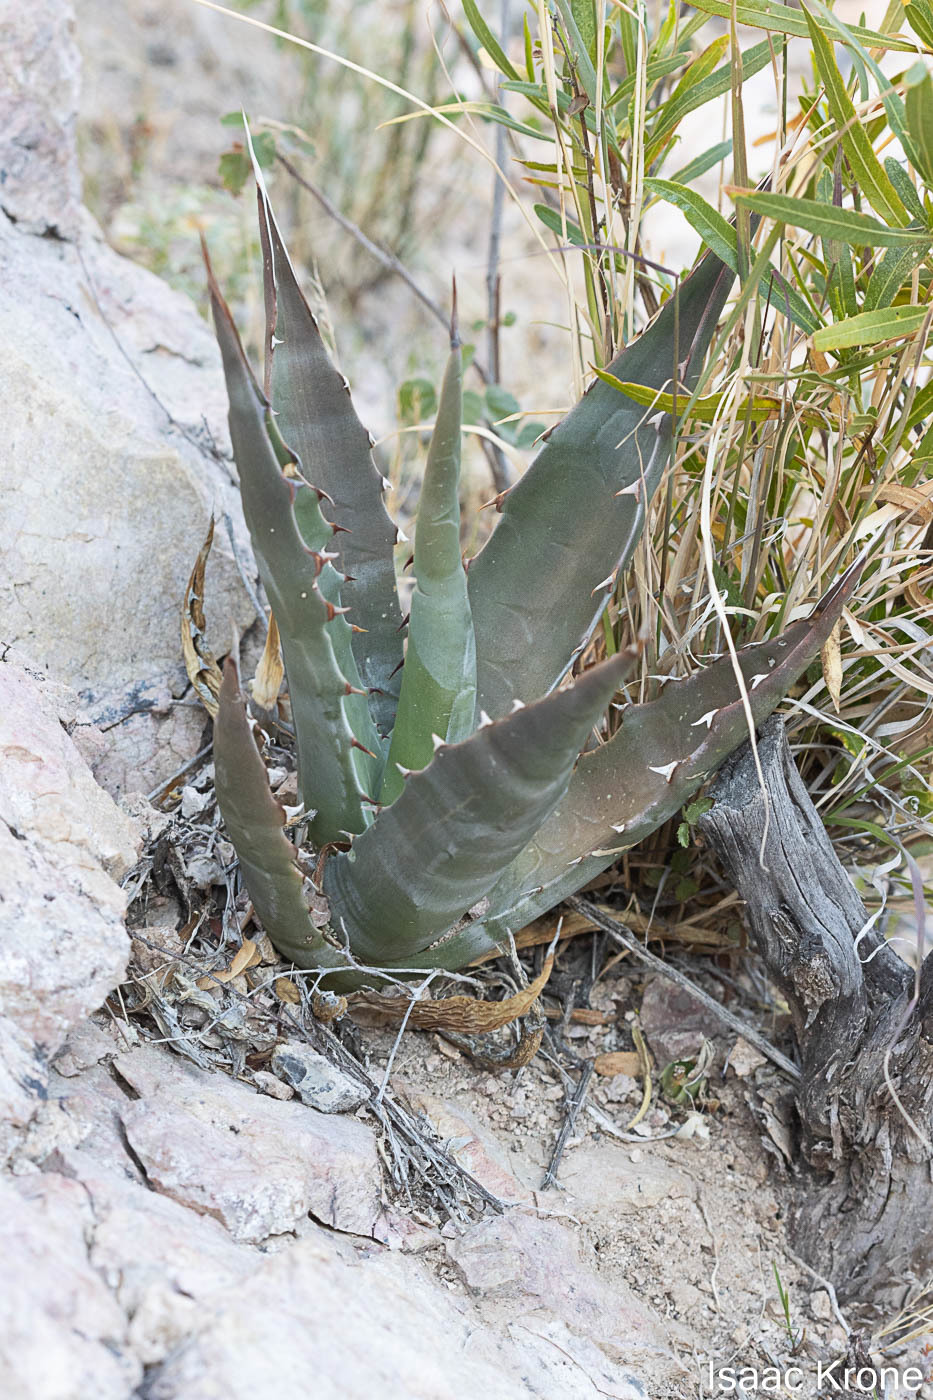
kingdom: Plantae
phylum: Tracheophyta
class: Liliopsida
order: Asparagales
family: Asparagaceae
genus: Agave
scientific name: Agave simplex
